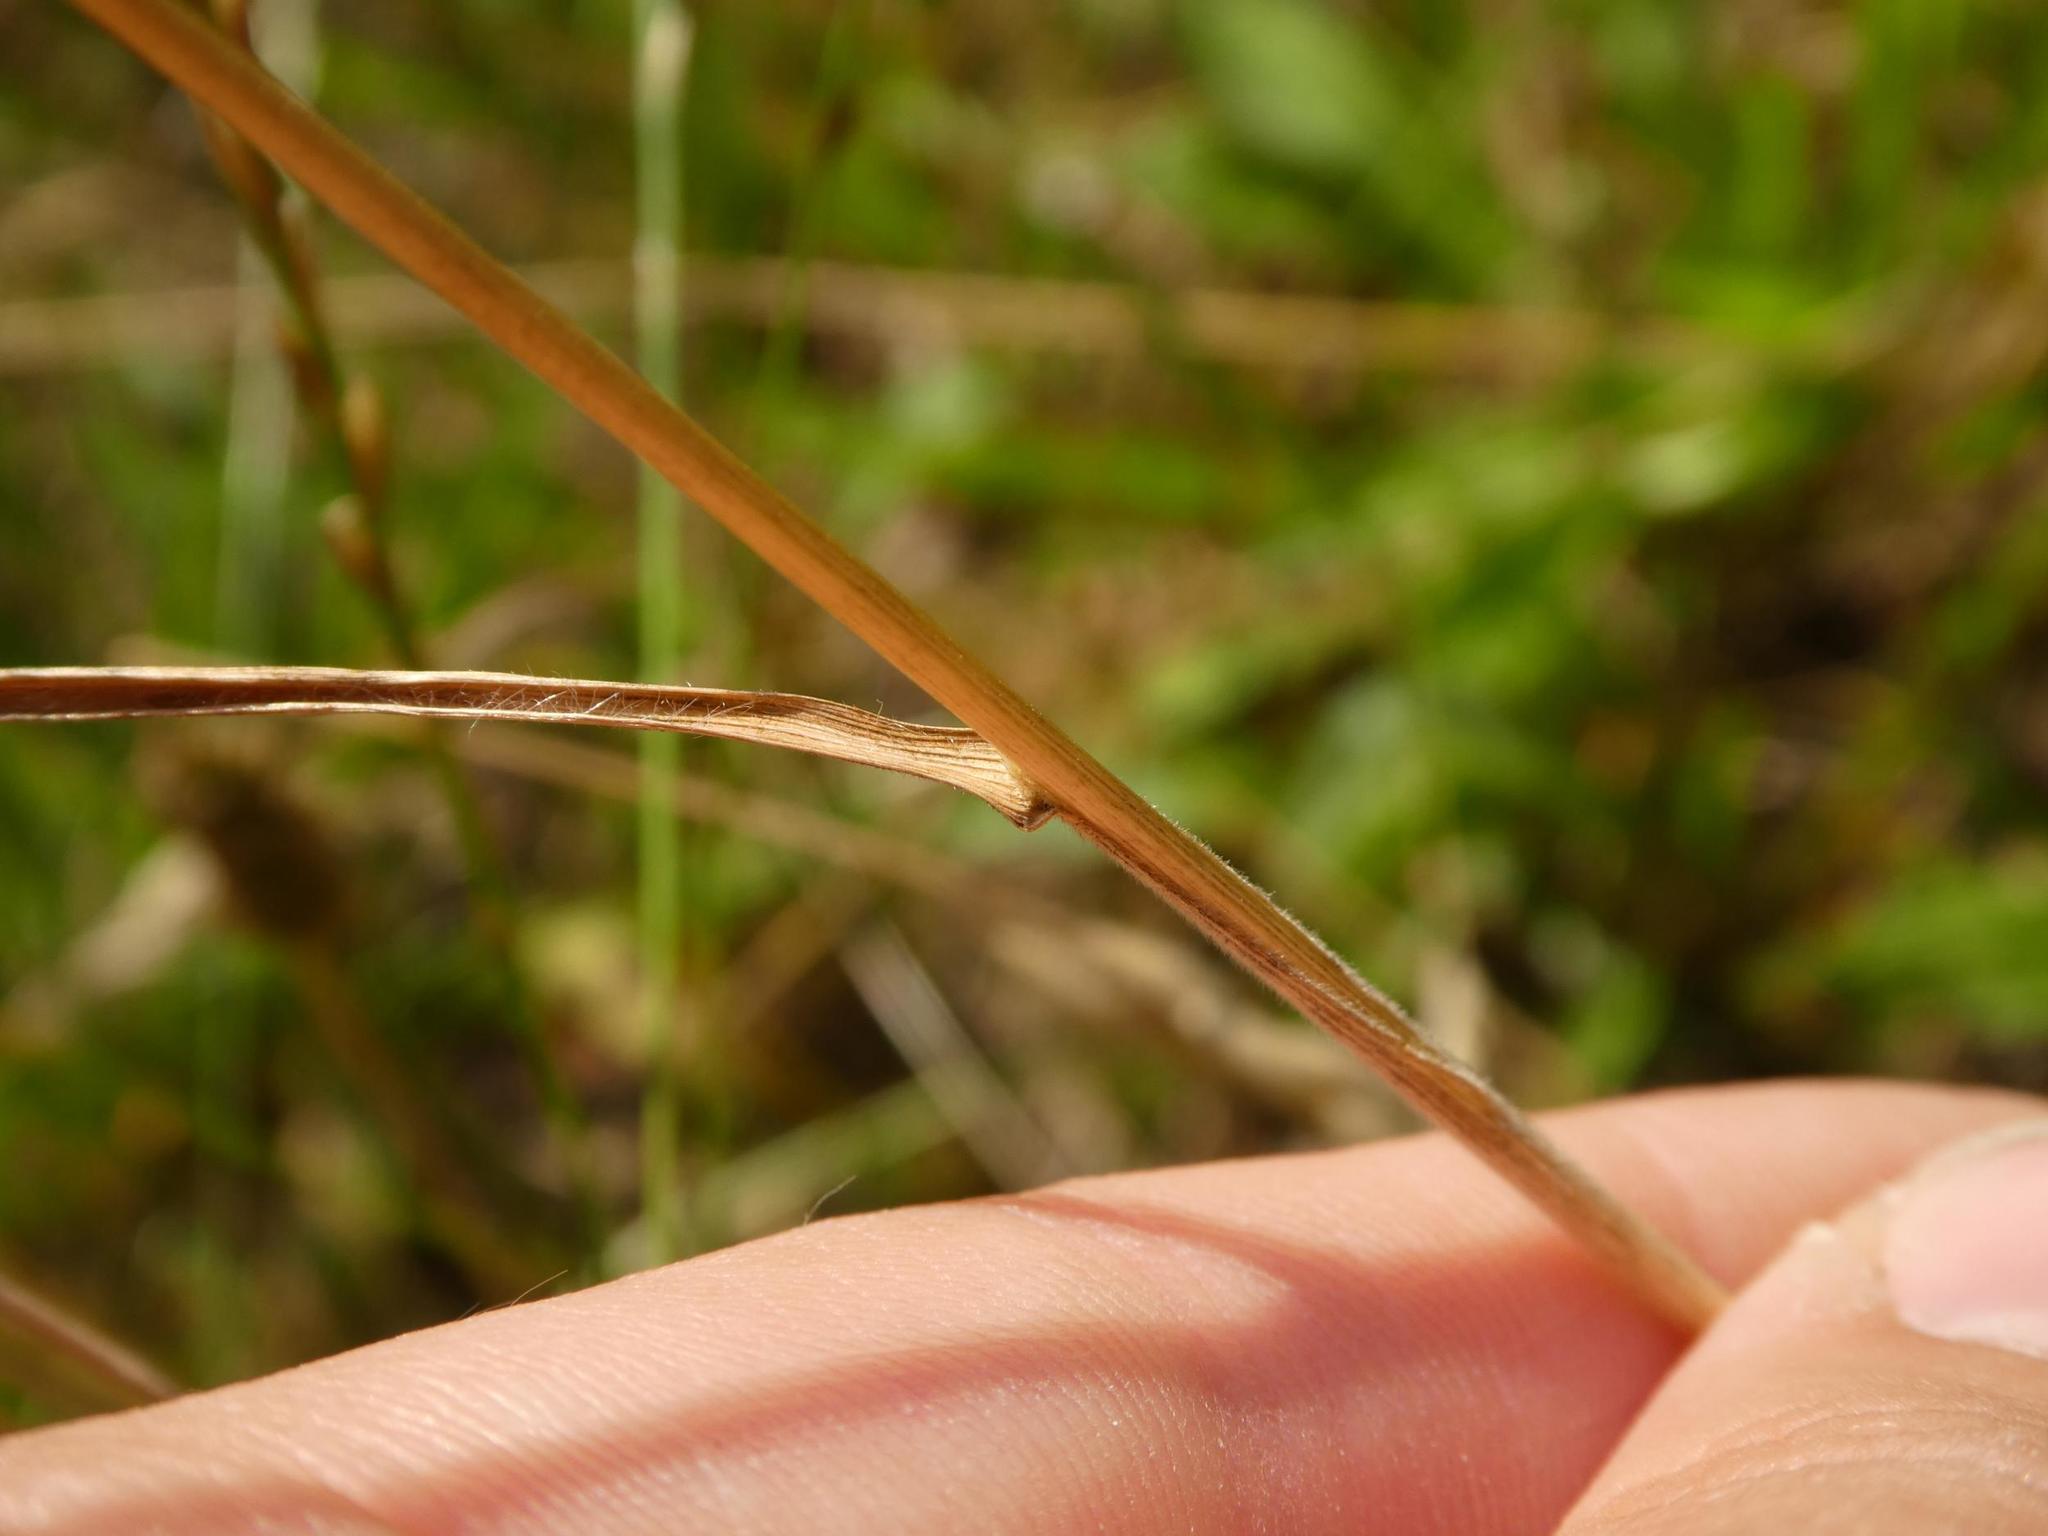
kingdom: Plantae
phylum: Tracheophyta
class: Liliopsida
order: Poales
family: Poaceae
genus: Bromus
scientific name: Bromus hordeaceus
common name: Soft brome
